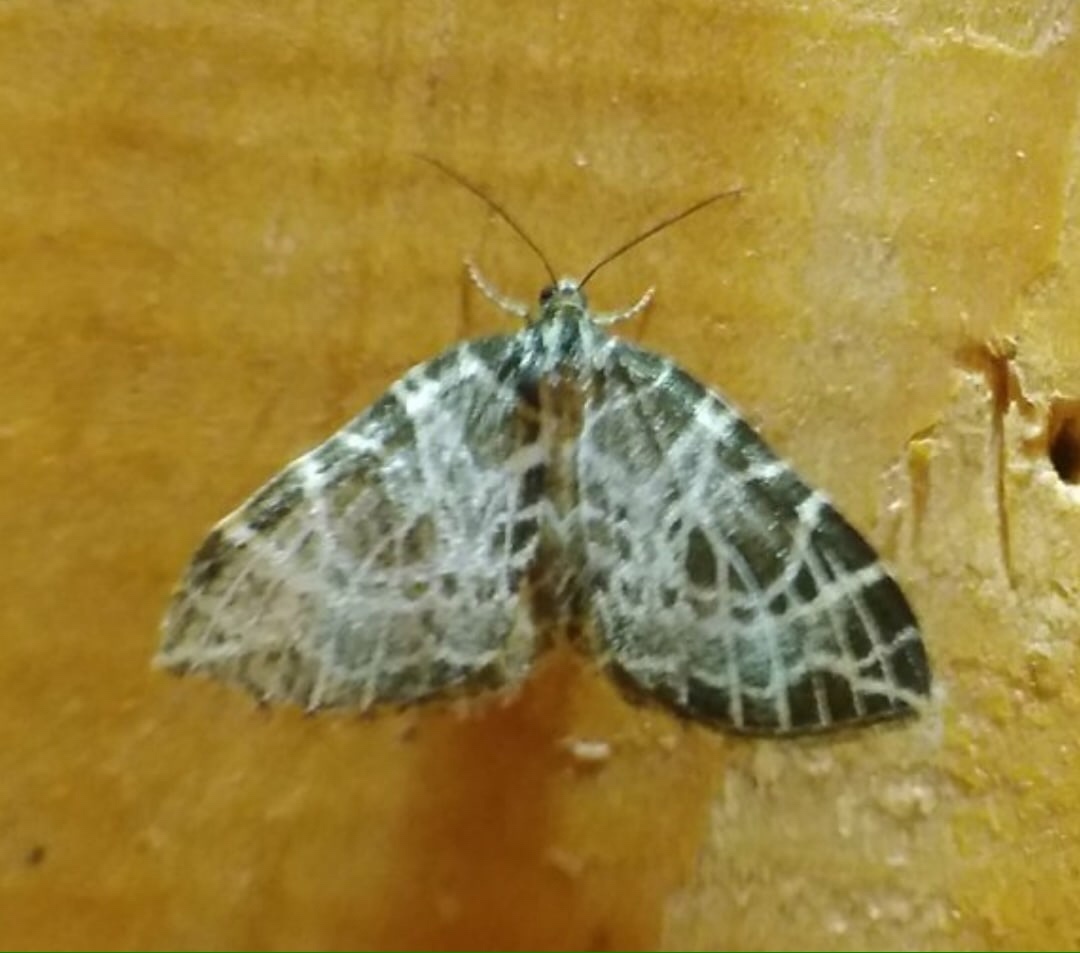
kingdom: Animalia
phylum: Arthropoda
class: Insecta
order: Lepidoptera
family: Geometridae
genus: Eustroma
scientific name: Eustroma reticulata
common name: Netted carpet
